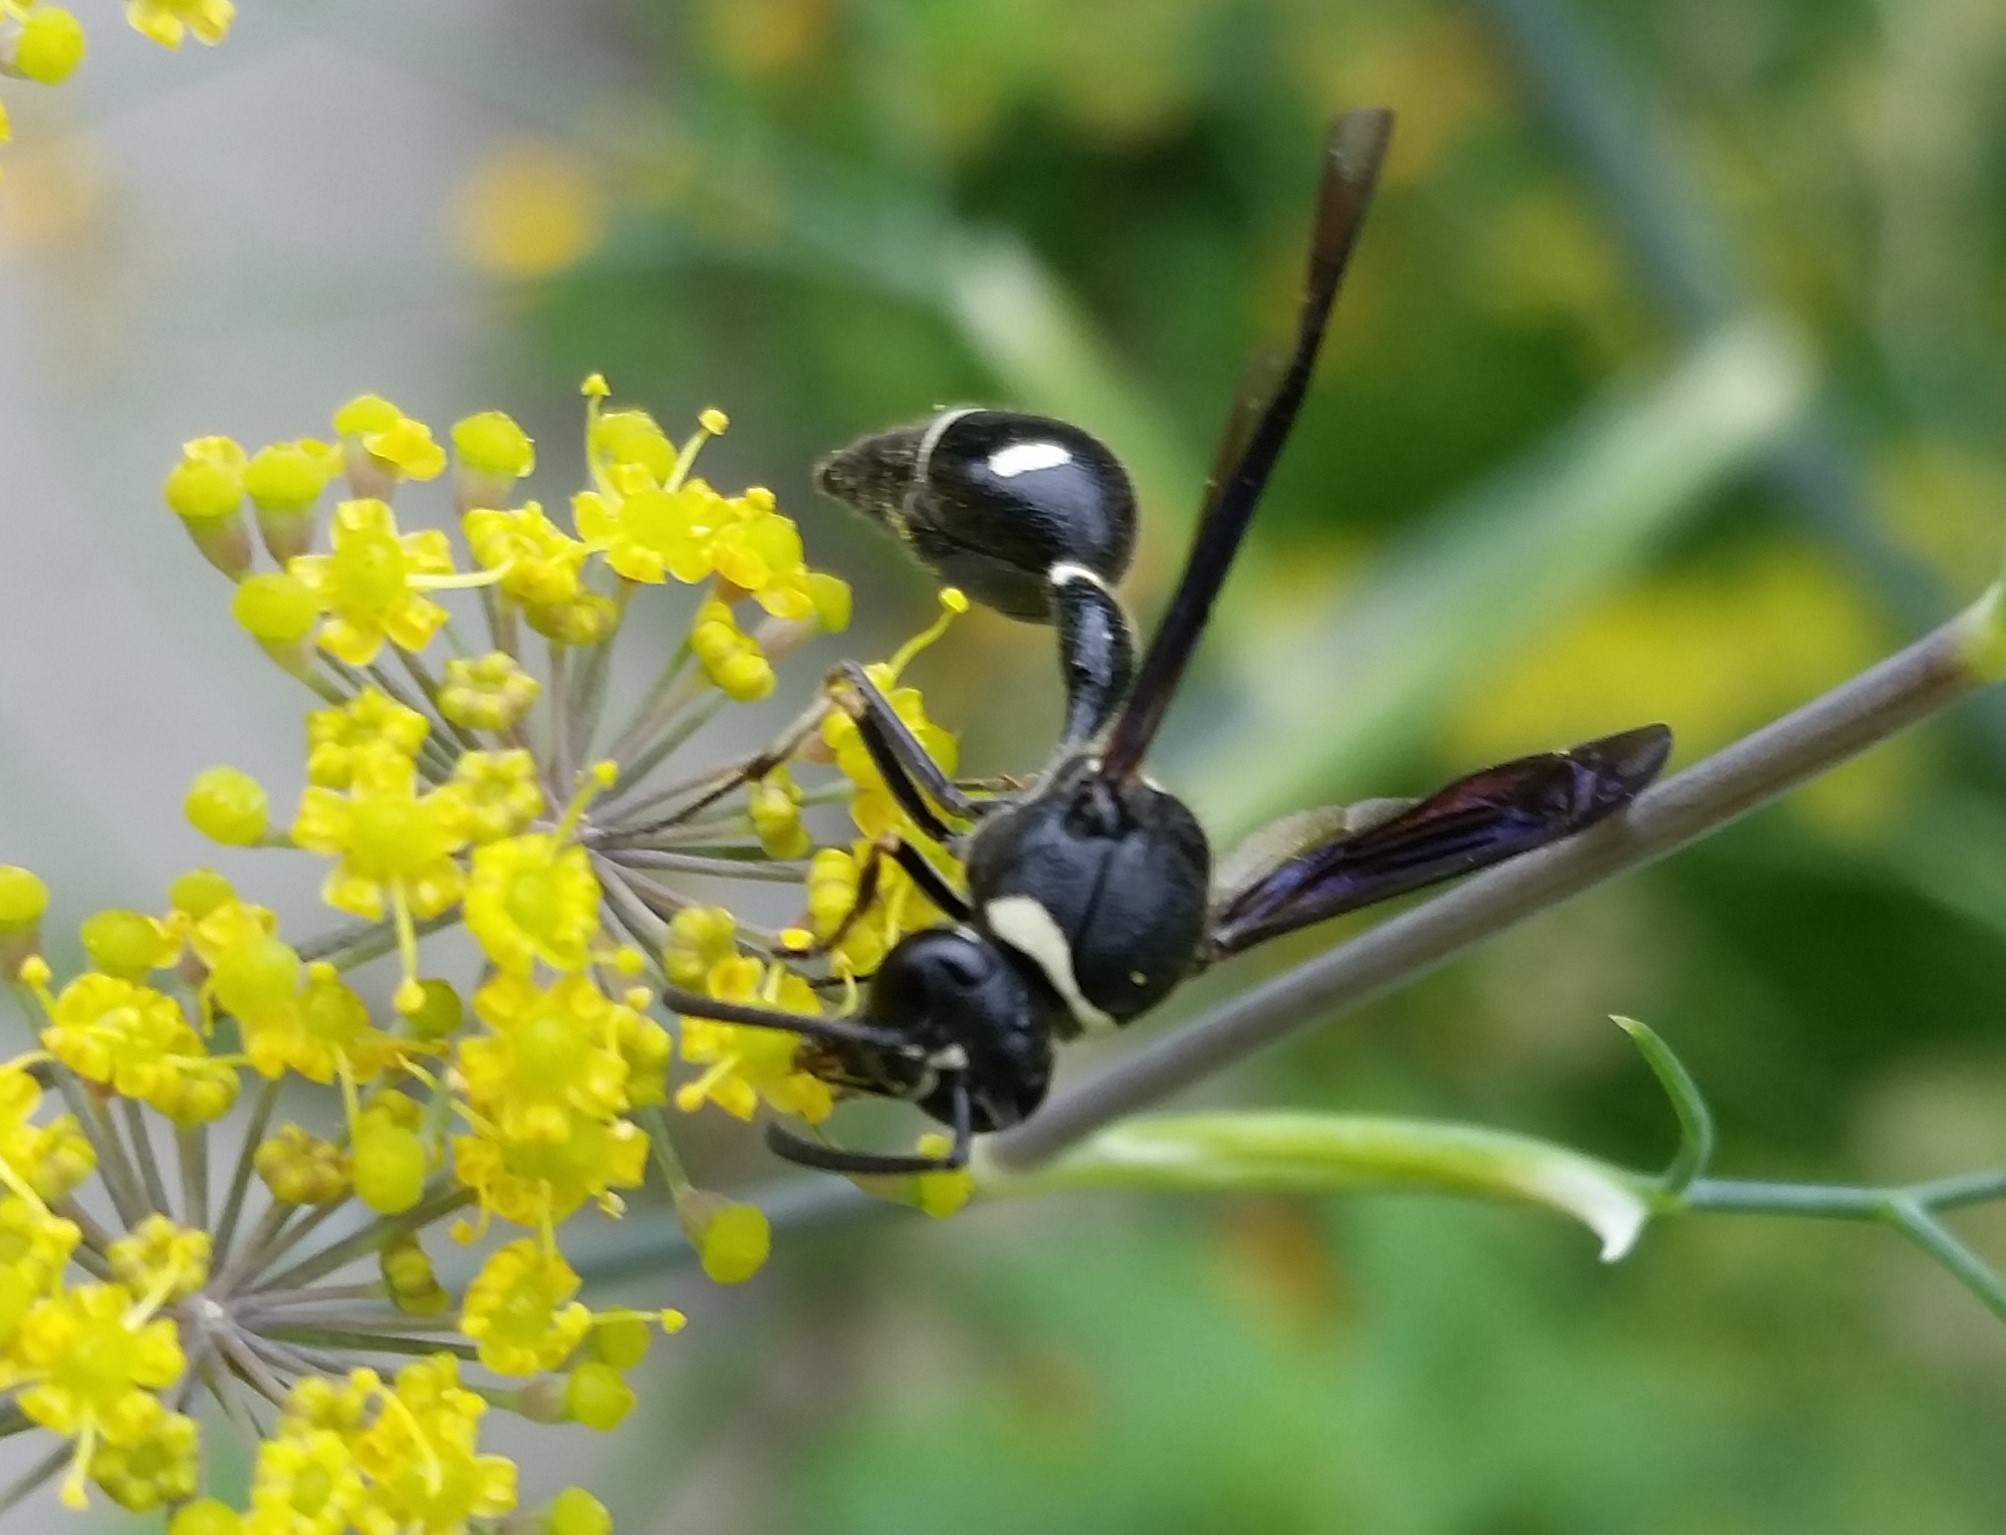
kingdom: Animalia
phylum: Arthropoda
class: Insecta
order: Hymenoptera
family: Vespidae
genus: Eumenes
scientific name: Eumenes fraternus
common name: Fraternal potter wasp
